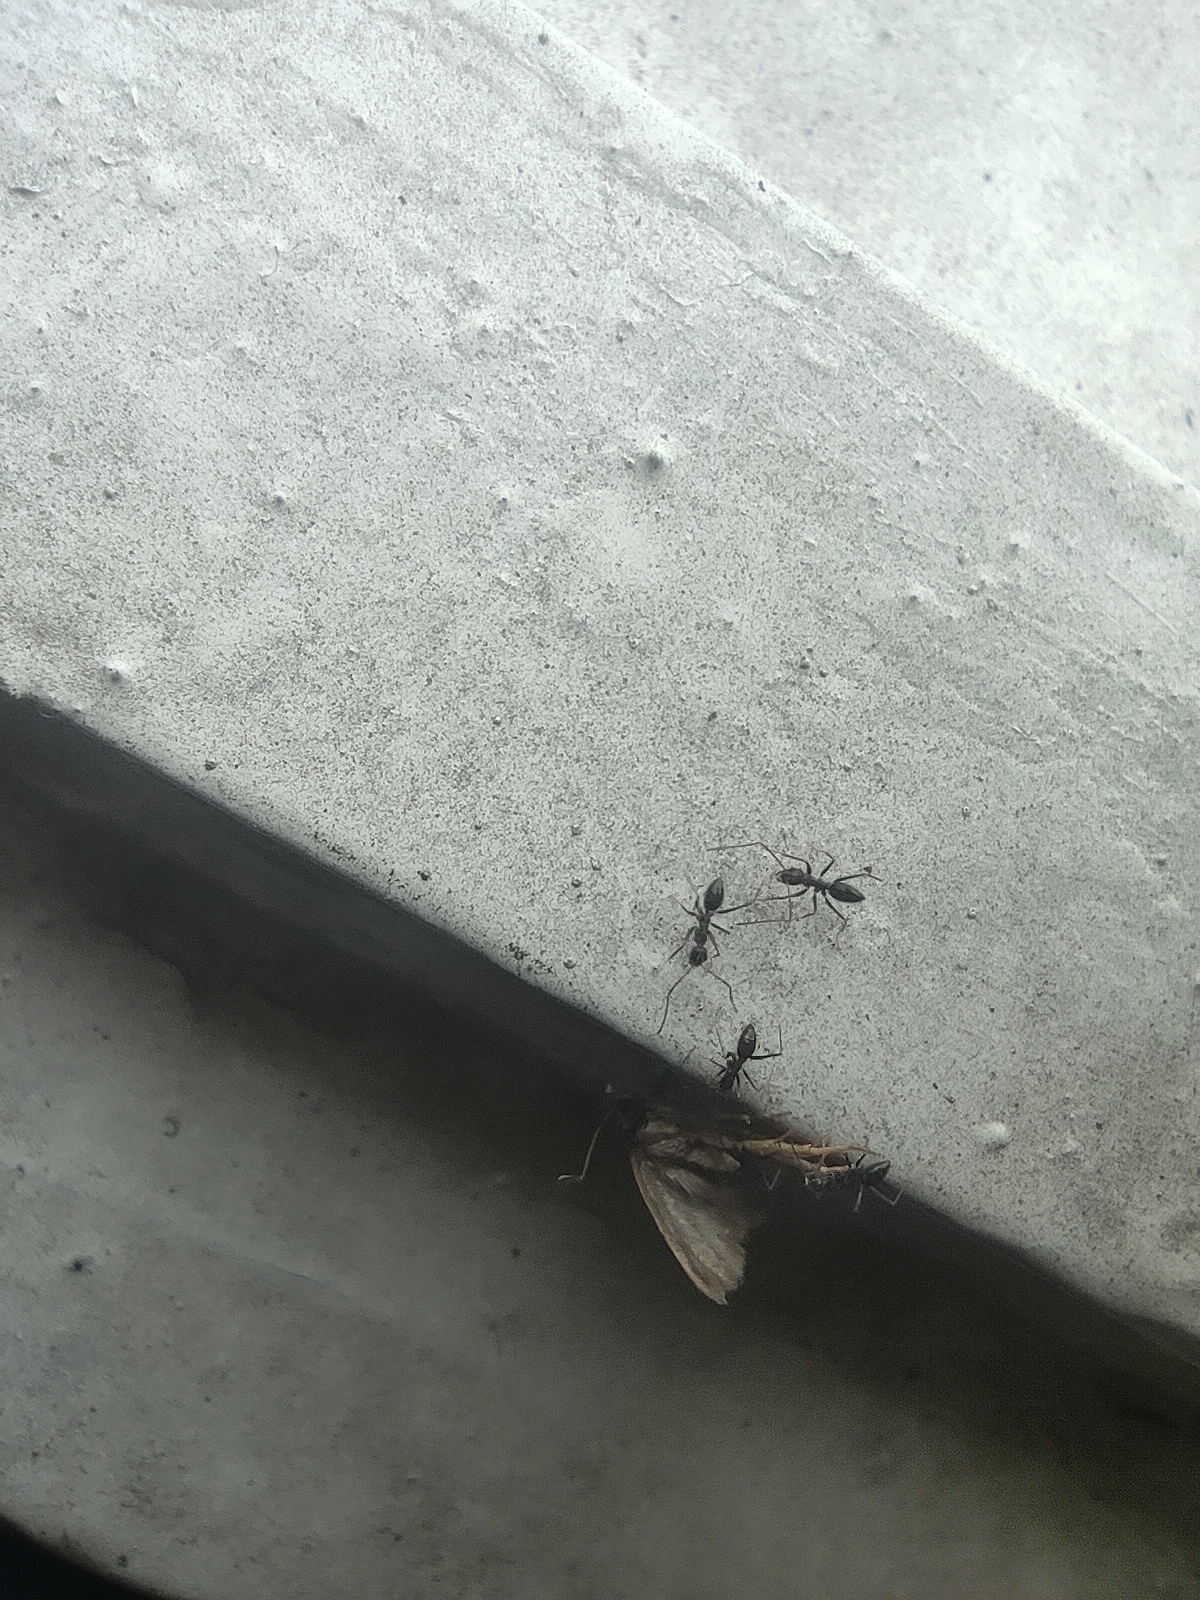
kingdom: Animalia
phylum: Arthropoda
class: Insecta
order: Hymenoptera
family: Formicidae
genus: Paratrechina
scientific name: Paratrechina longicornis
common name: Longhorned crazy ant
